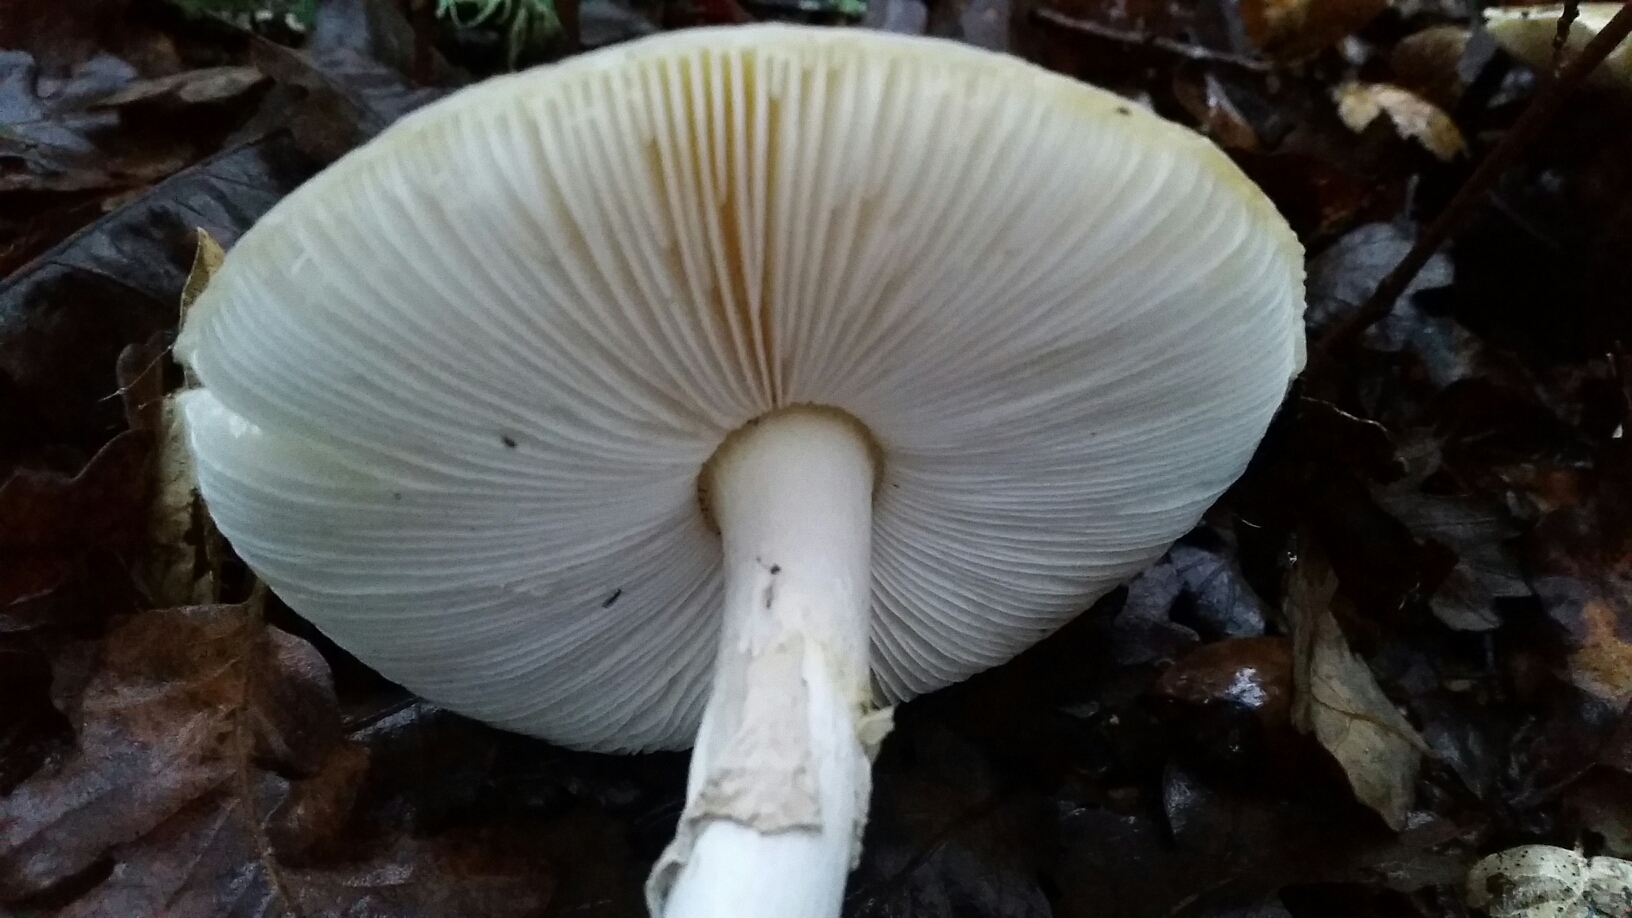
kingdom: Fungi
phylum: Basidiomycota
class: Agaricomycetes
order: Agaricales
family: Amanitaceae
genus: Amanita
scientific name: Amanita phalloides
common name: Death cap
